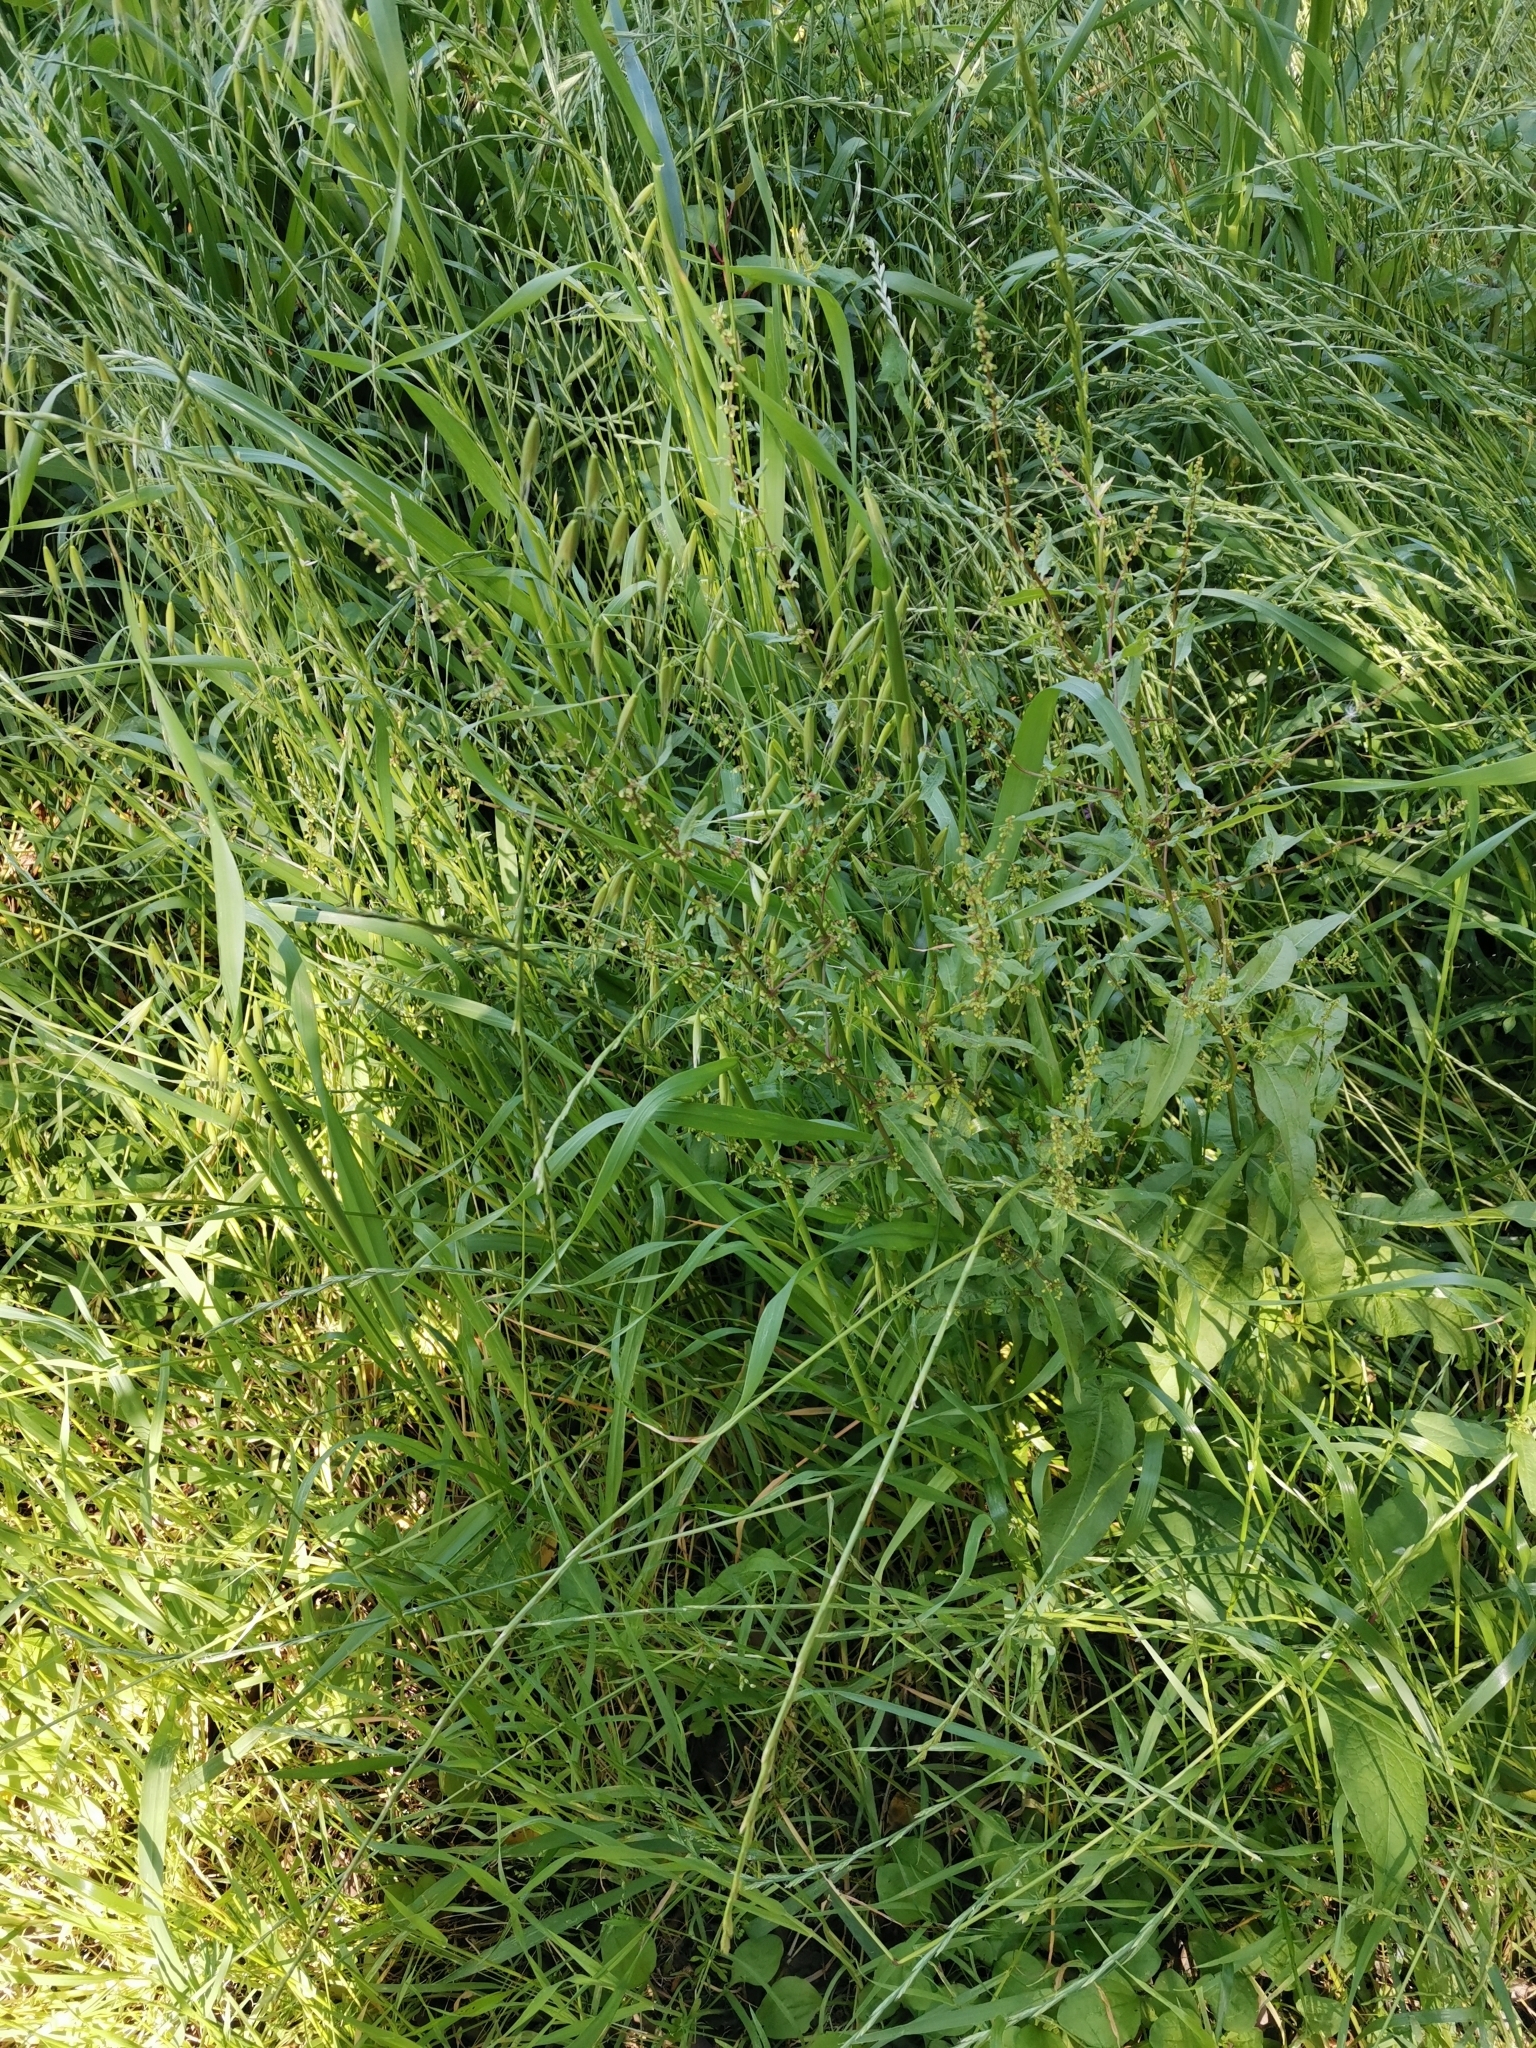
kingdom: Plantae
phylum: Tracheophyta
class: Liliopsida
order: Poales
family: Poaceae
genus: Avena
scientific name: Avena fatua
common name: Wild oat
